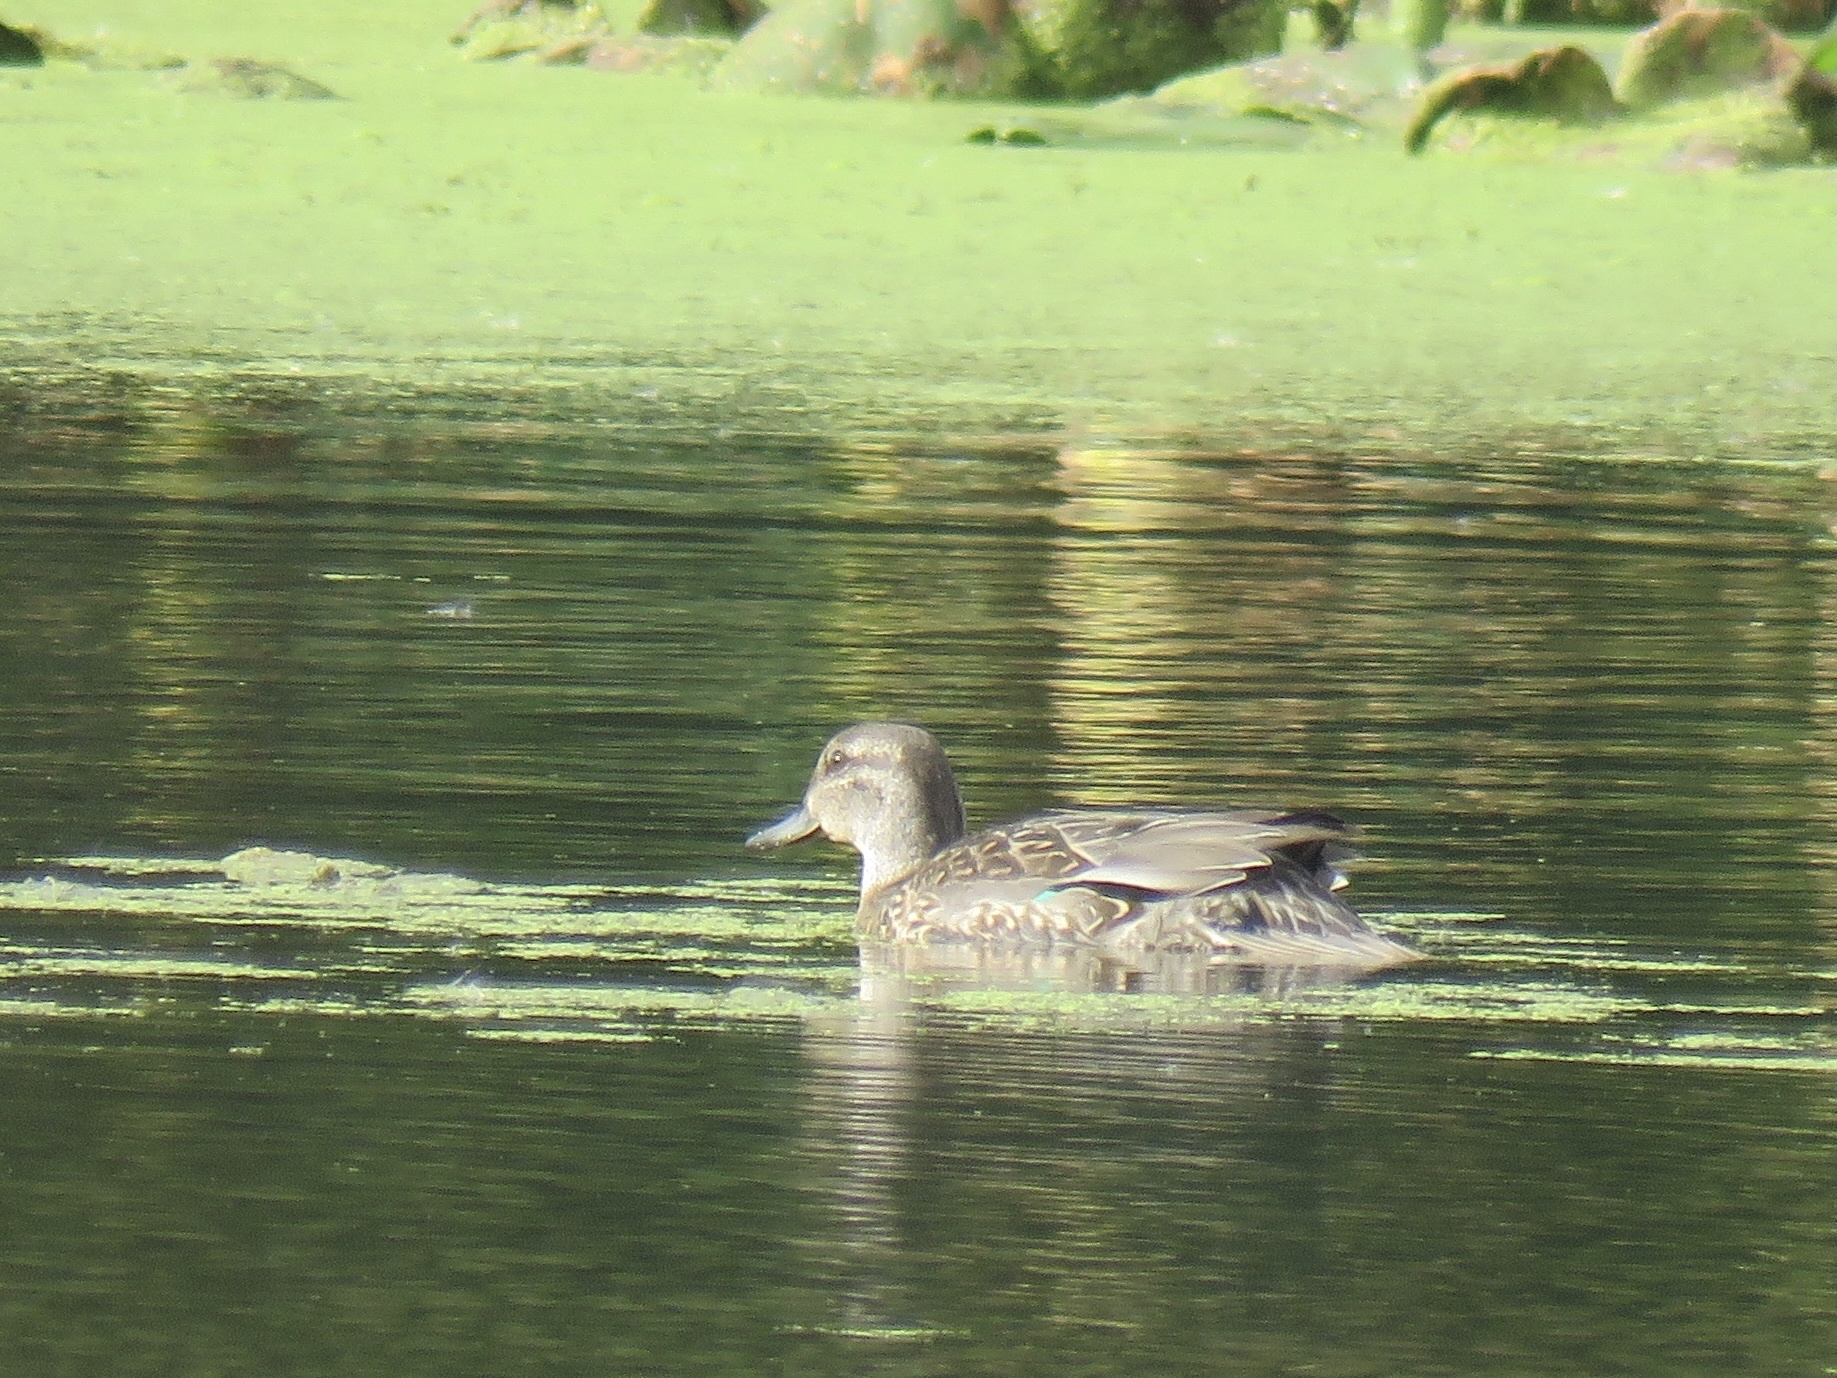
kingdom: Animalia
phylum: Chordata
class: Aves
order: Anseriformes
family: Anatidae
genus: Anas
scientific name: Anas crecca
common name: Eurasian teal
